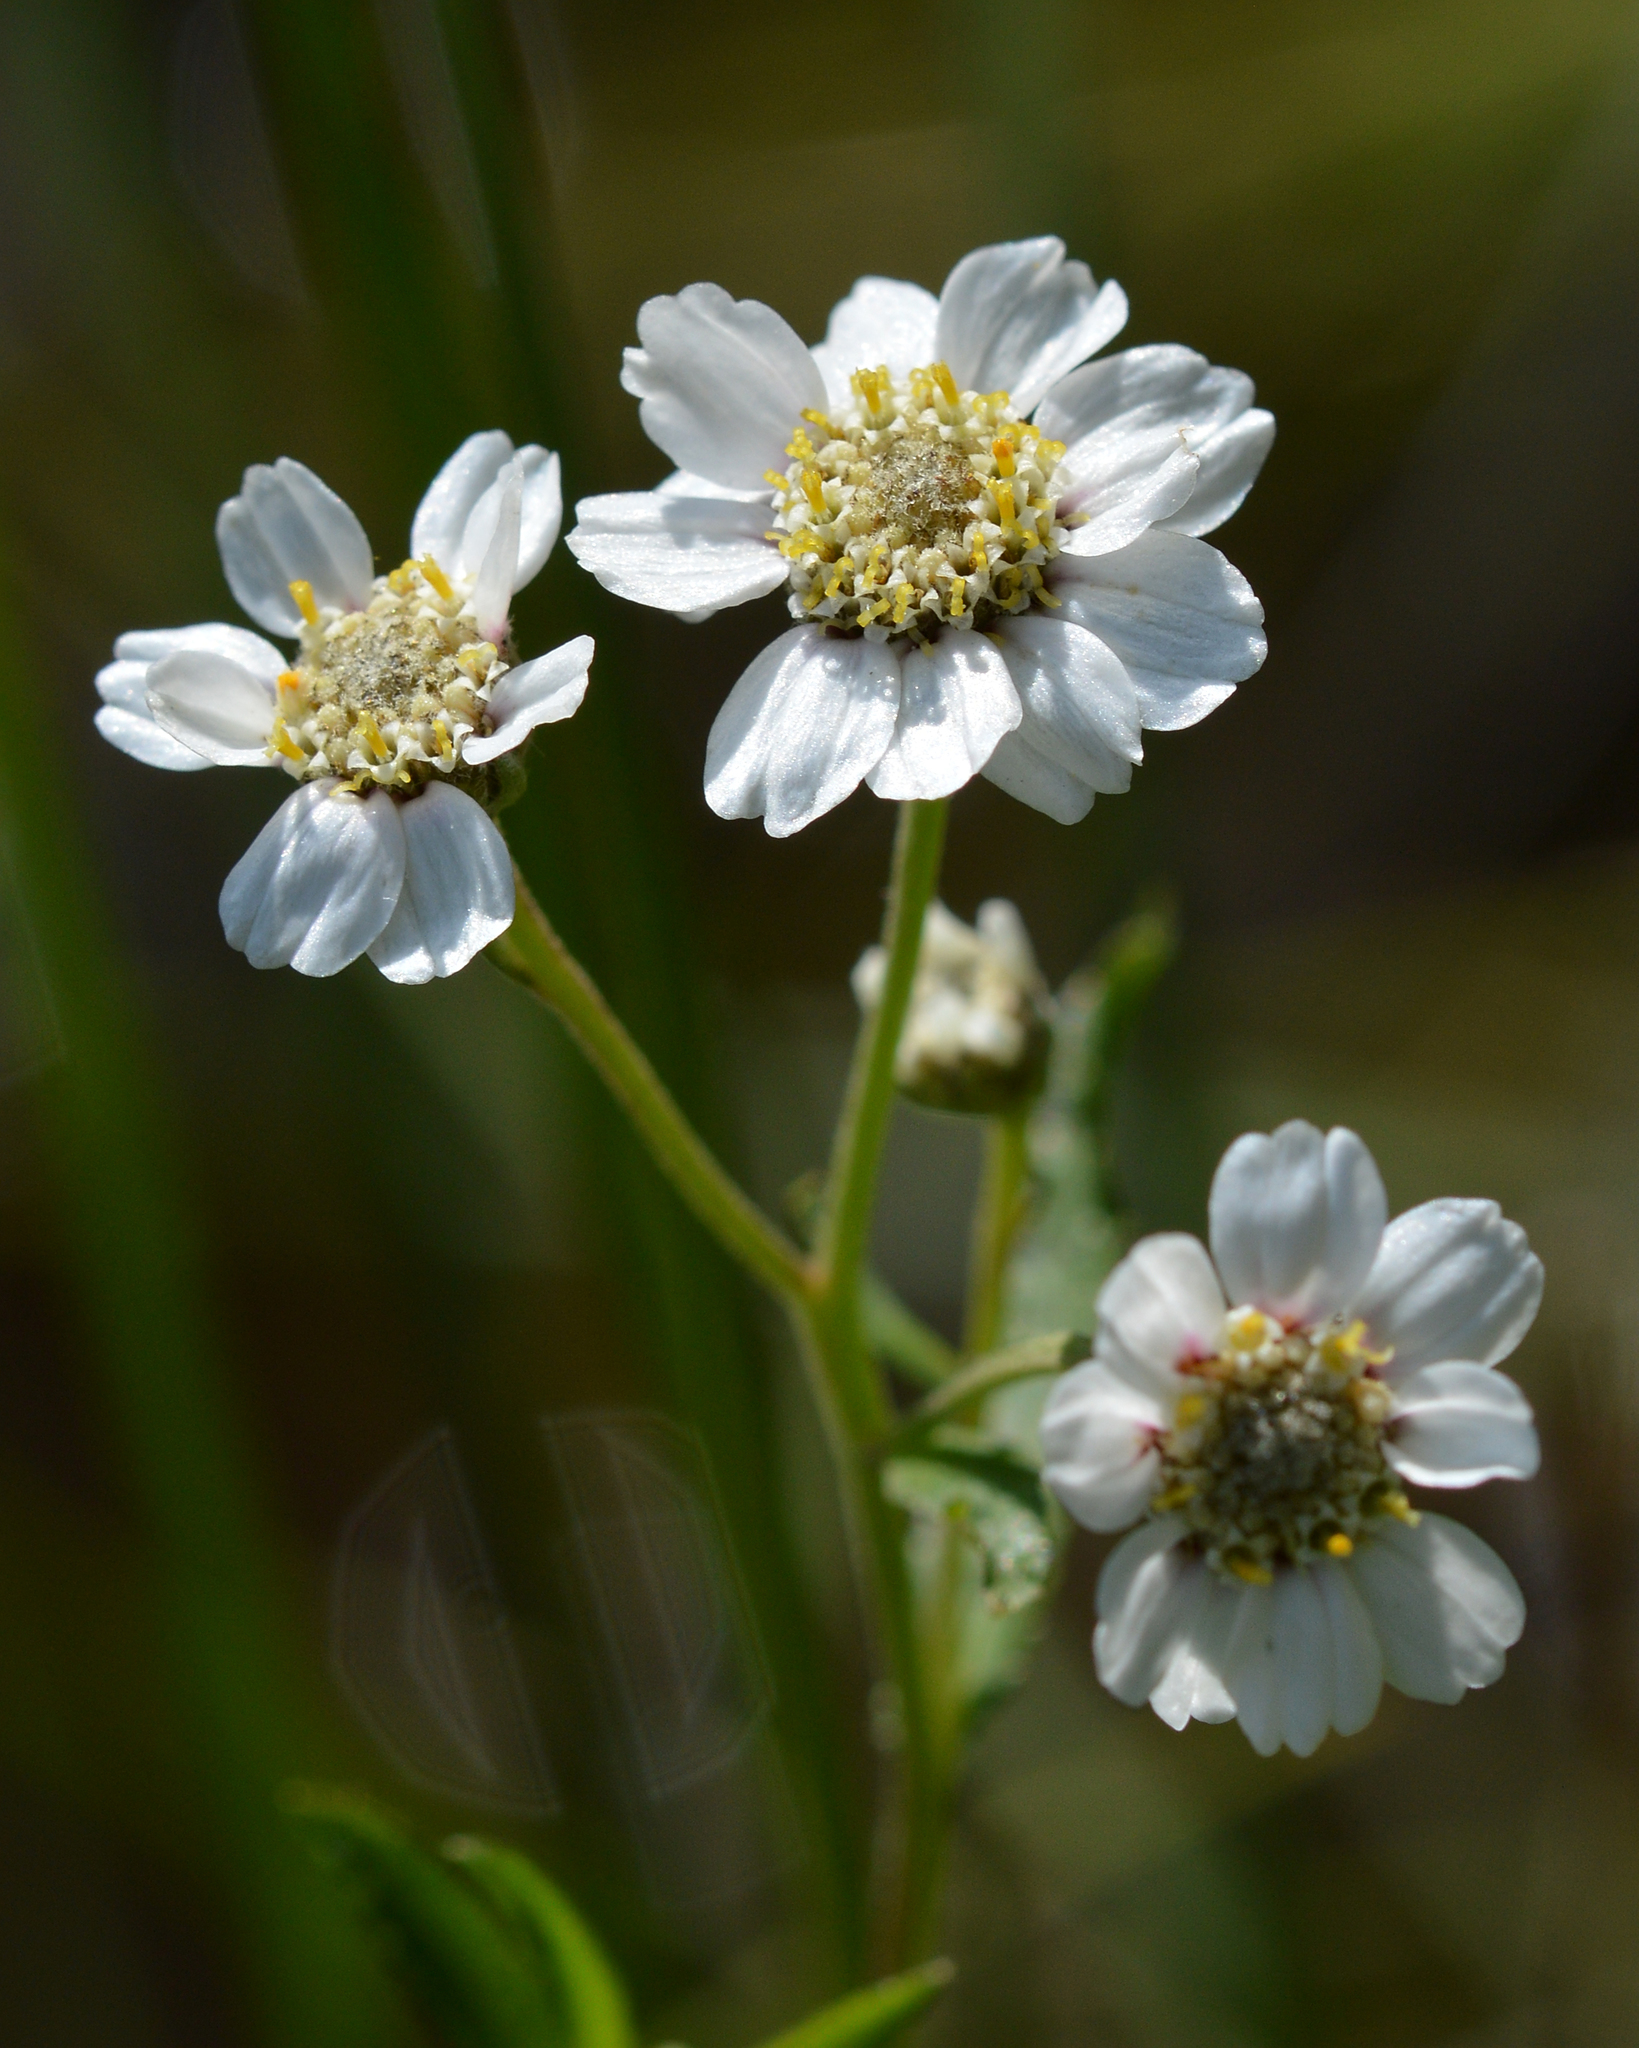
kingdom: Plantae
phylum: Tracheophyta
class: Magnoliopsida
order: Asterales
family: Asteraceae
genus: Achillea
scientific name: Achillea ptarmica
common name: Sneezeweed
